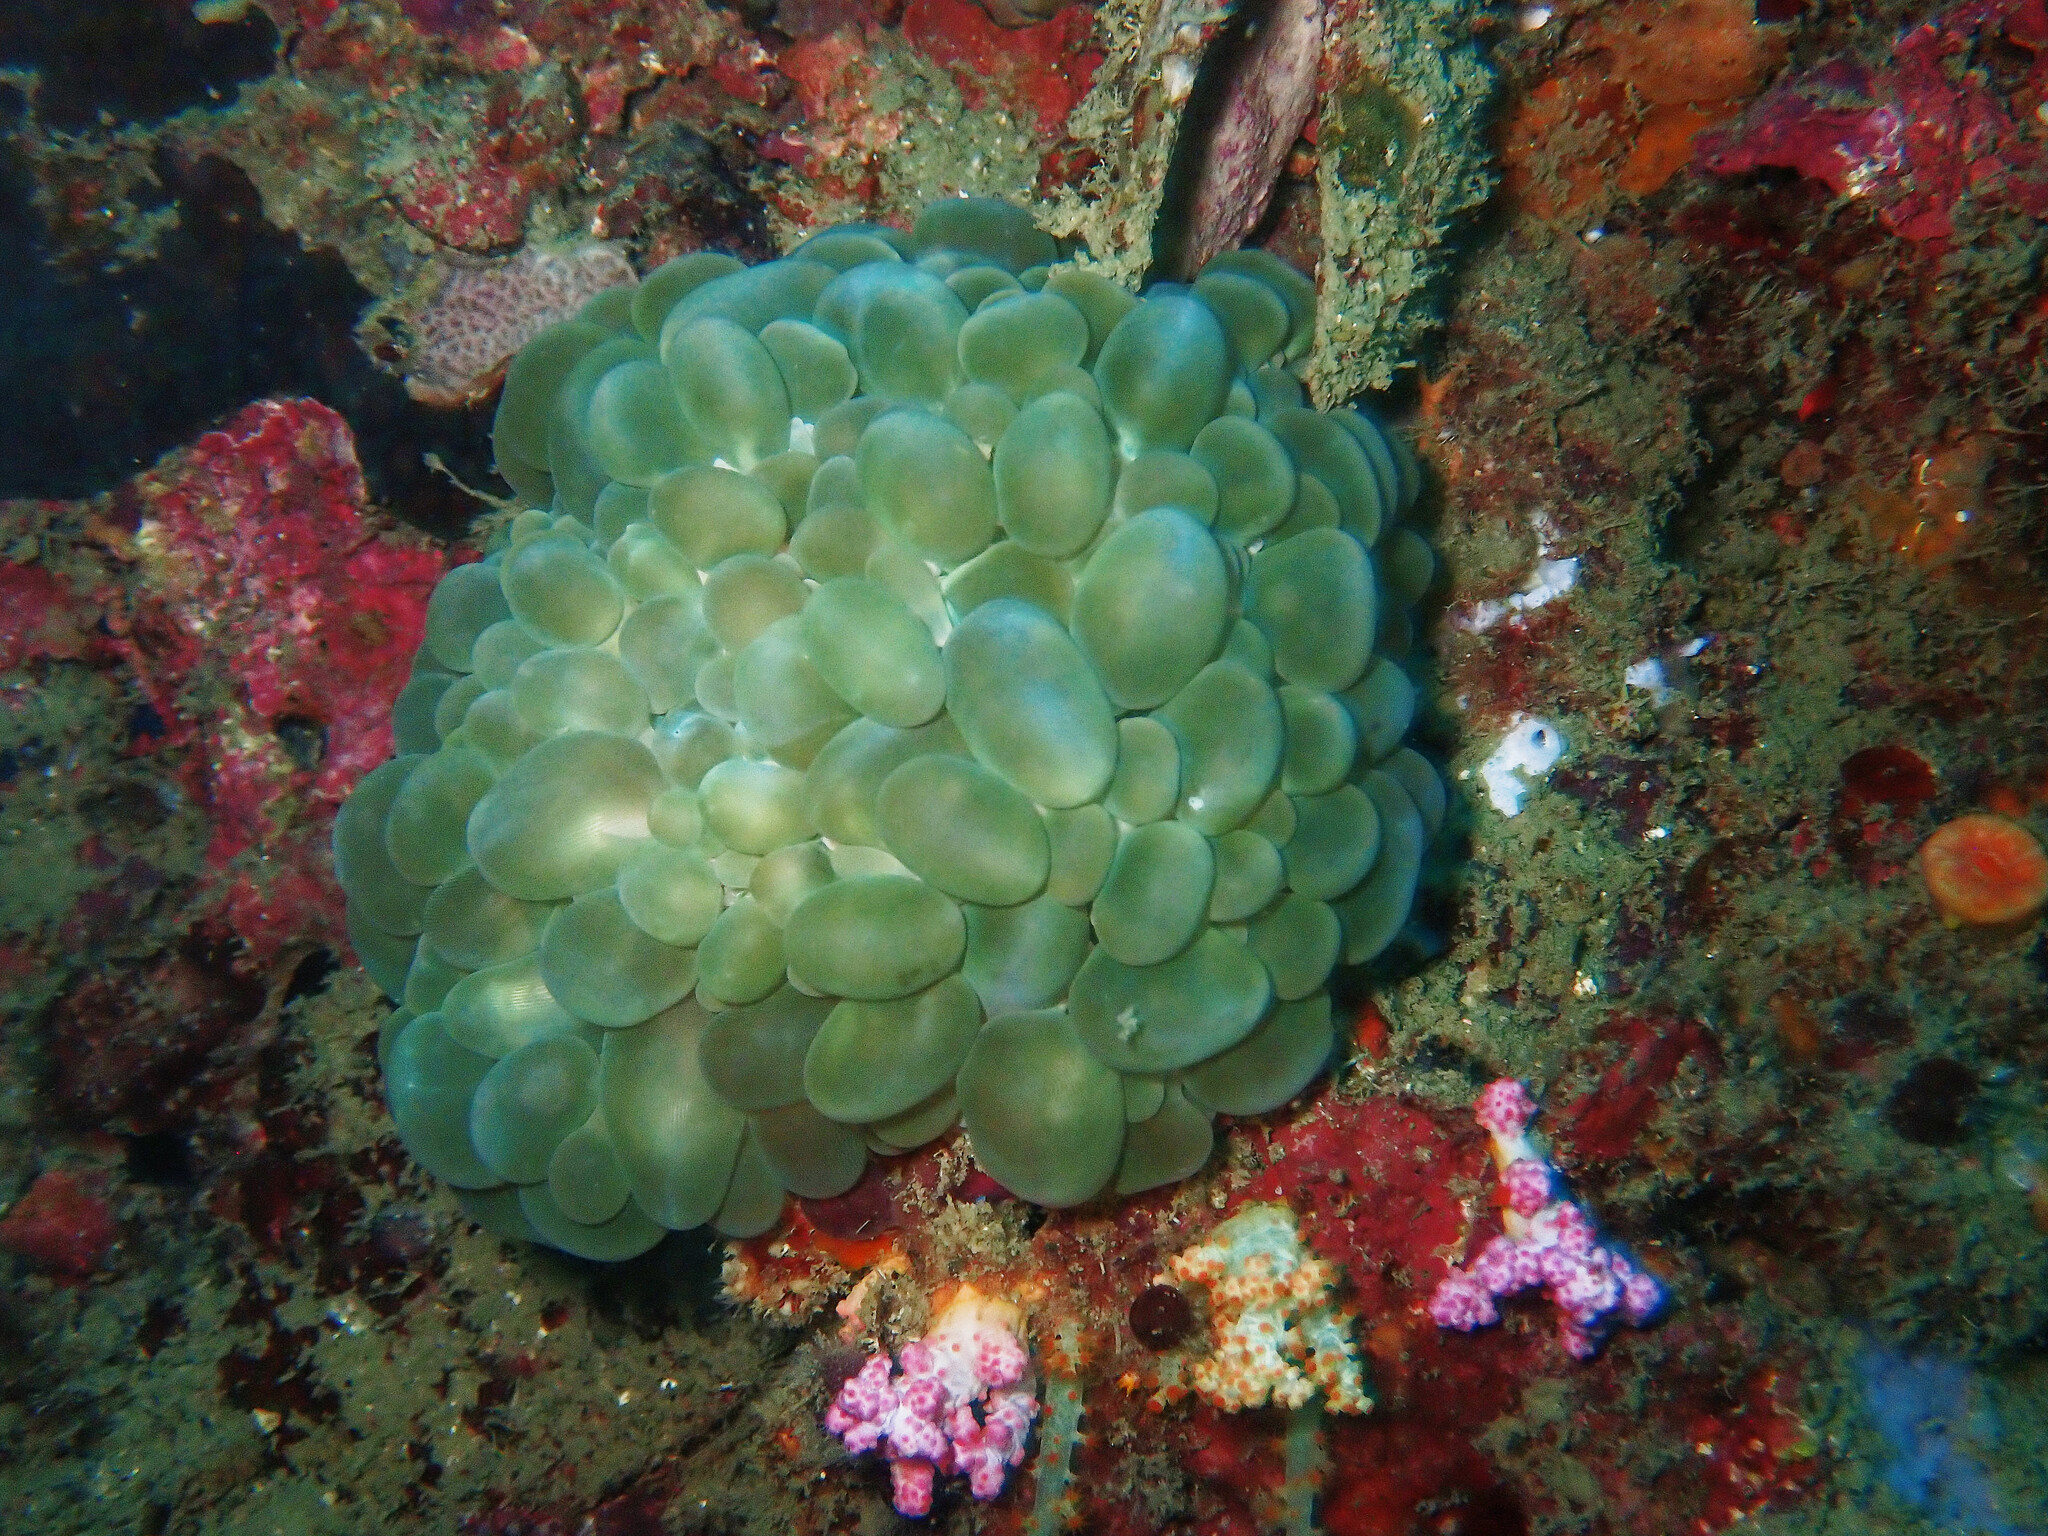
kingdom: Animalia
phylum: Cnidaria
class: Anthozoa
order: Scleractinia
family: Plerogyridae
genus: Plerogyra
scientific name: Plerogyra sinuosa
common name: Bubble coral
